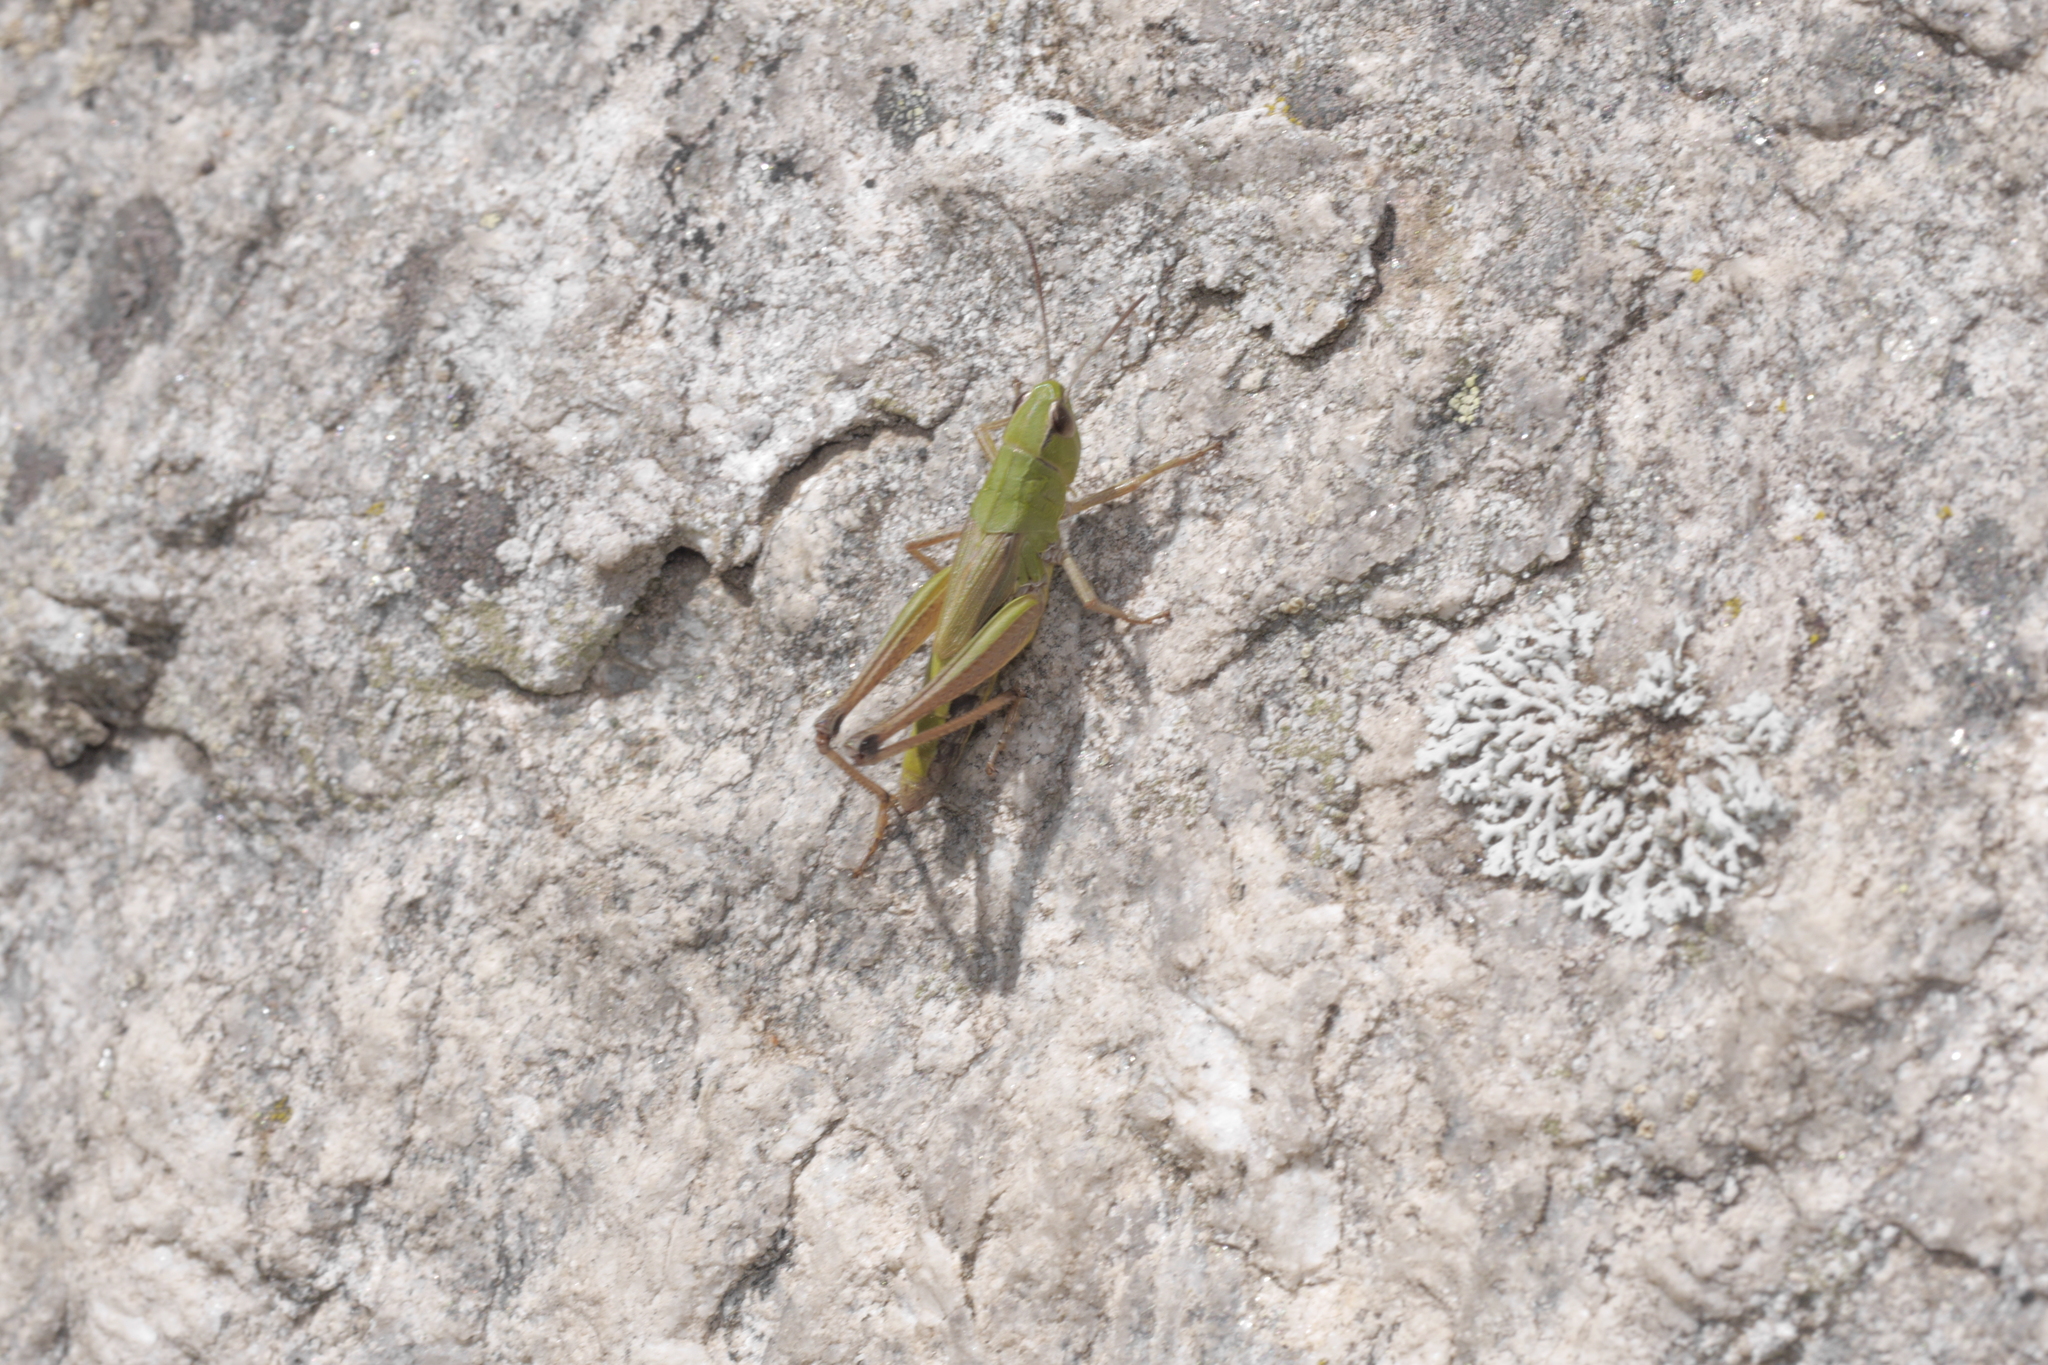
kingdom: Animalia
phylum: Arthropoda
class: Insecta
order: Orthoptera
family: Acrididae
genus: Pseudochorthippus
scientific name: Pseudochorthippus parallelus
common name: Meadow grasshopper
